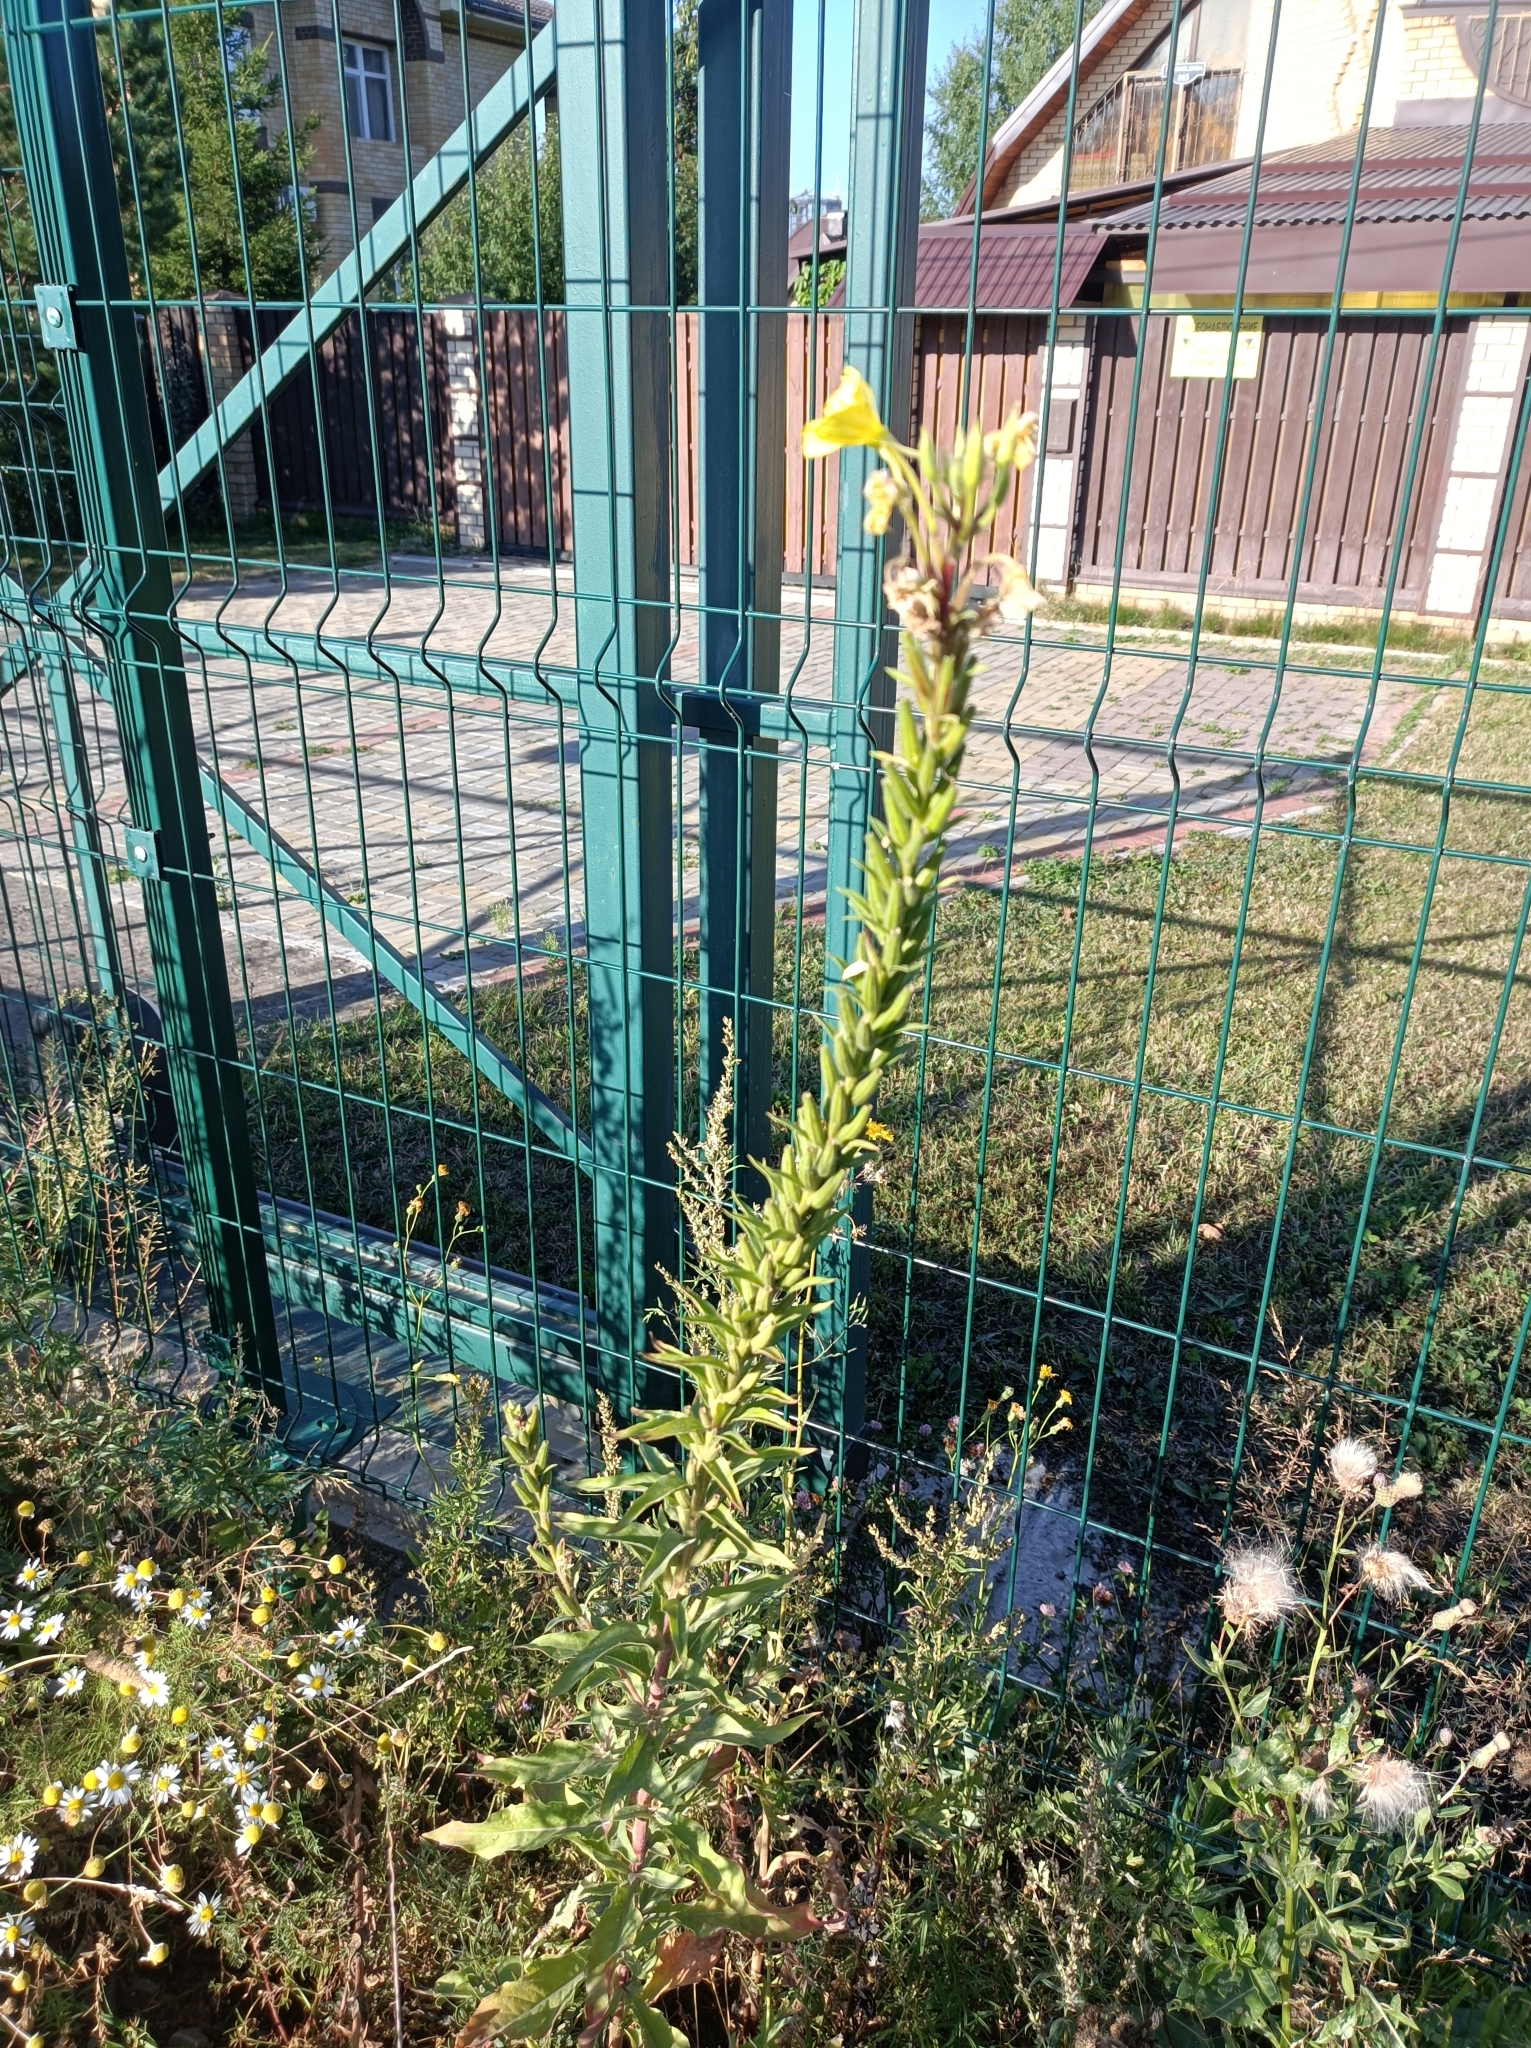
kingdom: Plantae
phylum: Tracheophyta
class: Magnoliopsida
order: Myrtales
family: Onagraceae
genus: Oenothera
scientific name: Oenothera rubricaulis
